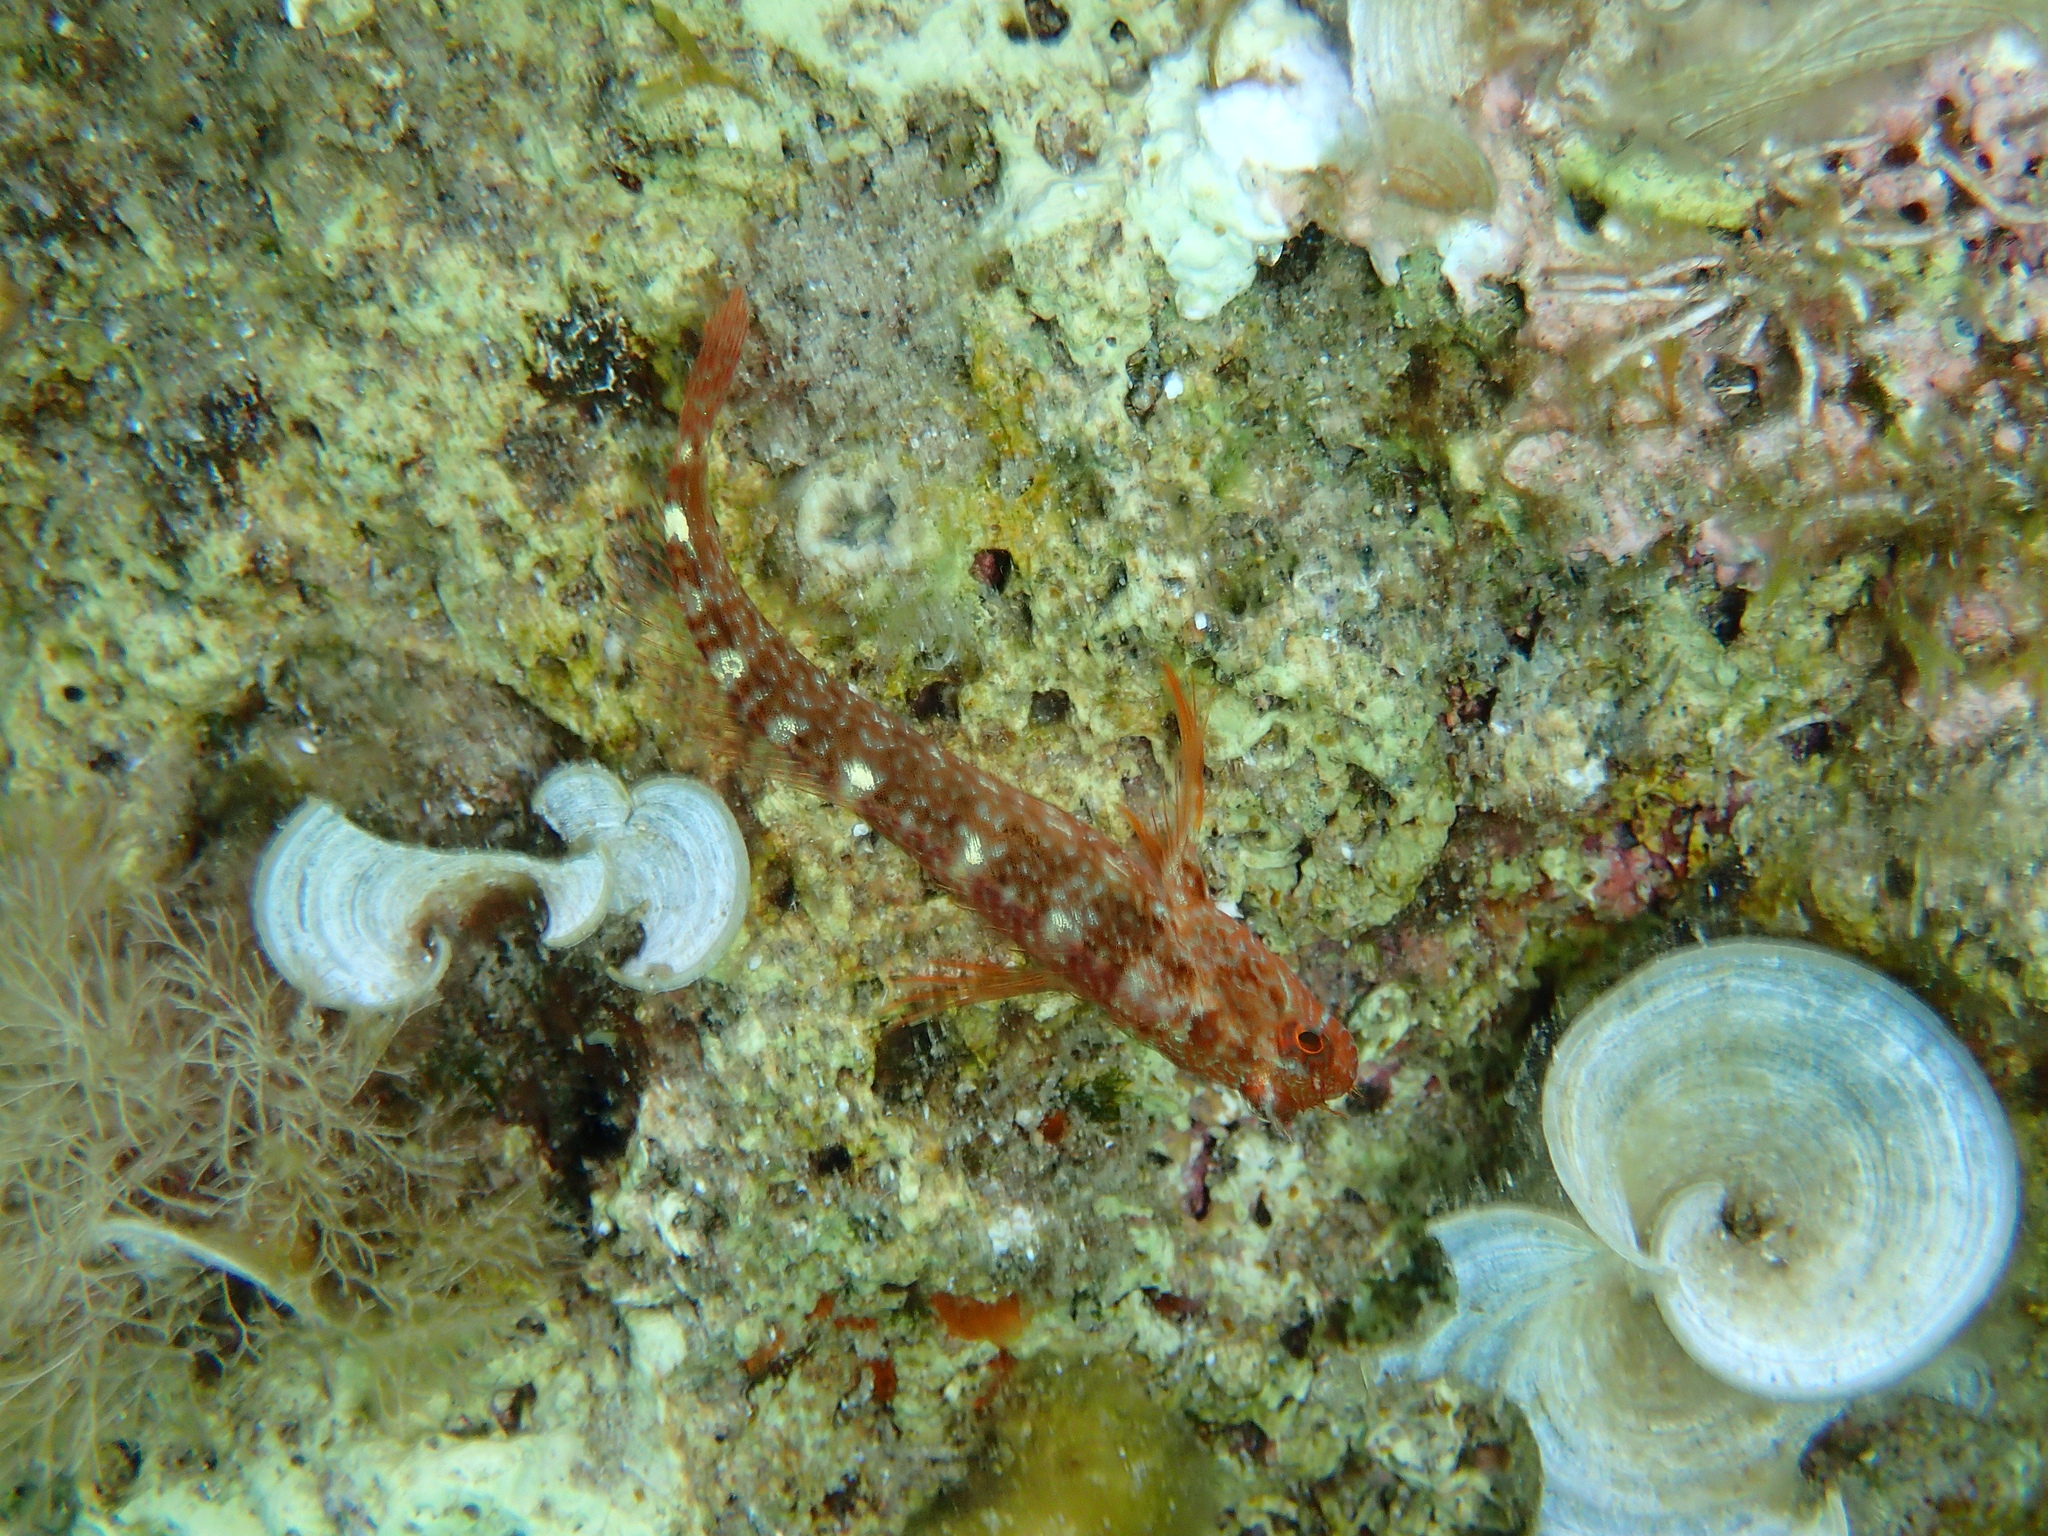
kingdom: Animalia
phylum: Chordata
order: Perciformes
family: Blenniidae
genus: Parablennius
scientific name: Parablennius zvonimiri
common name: Red blenny
